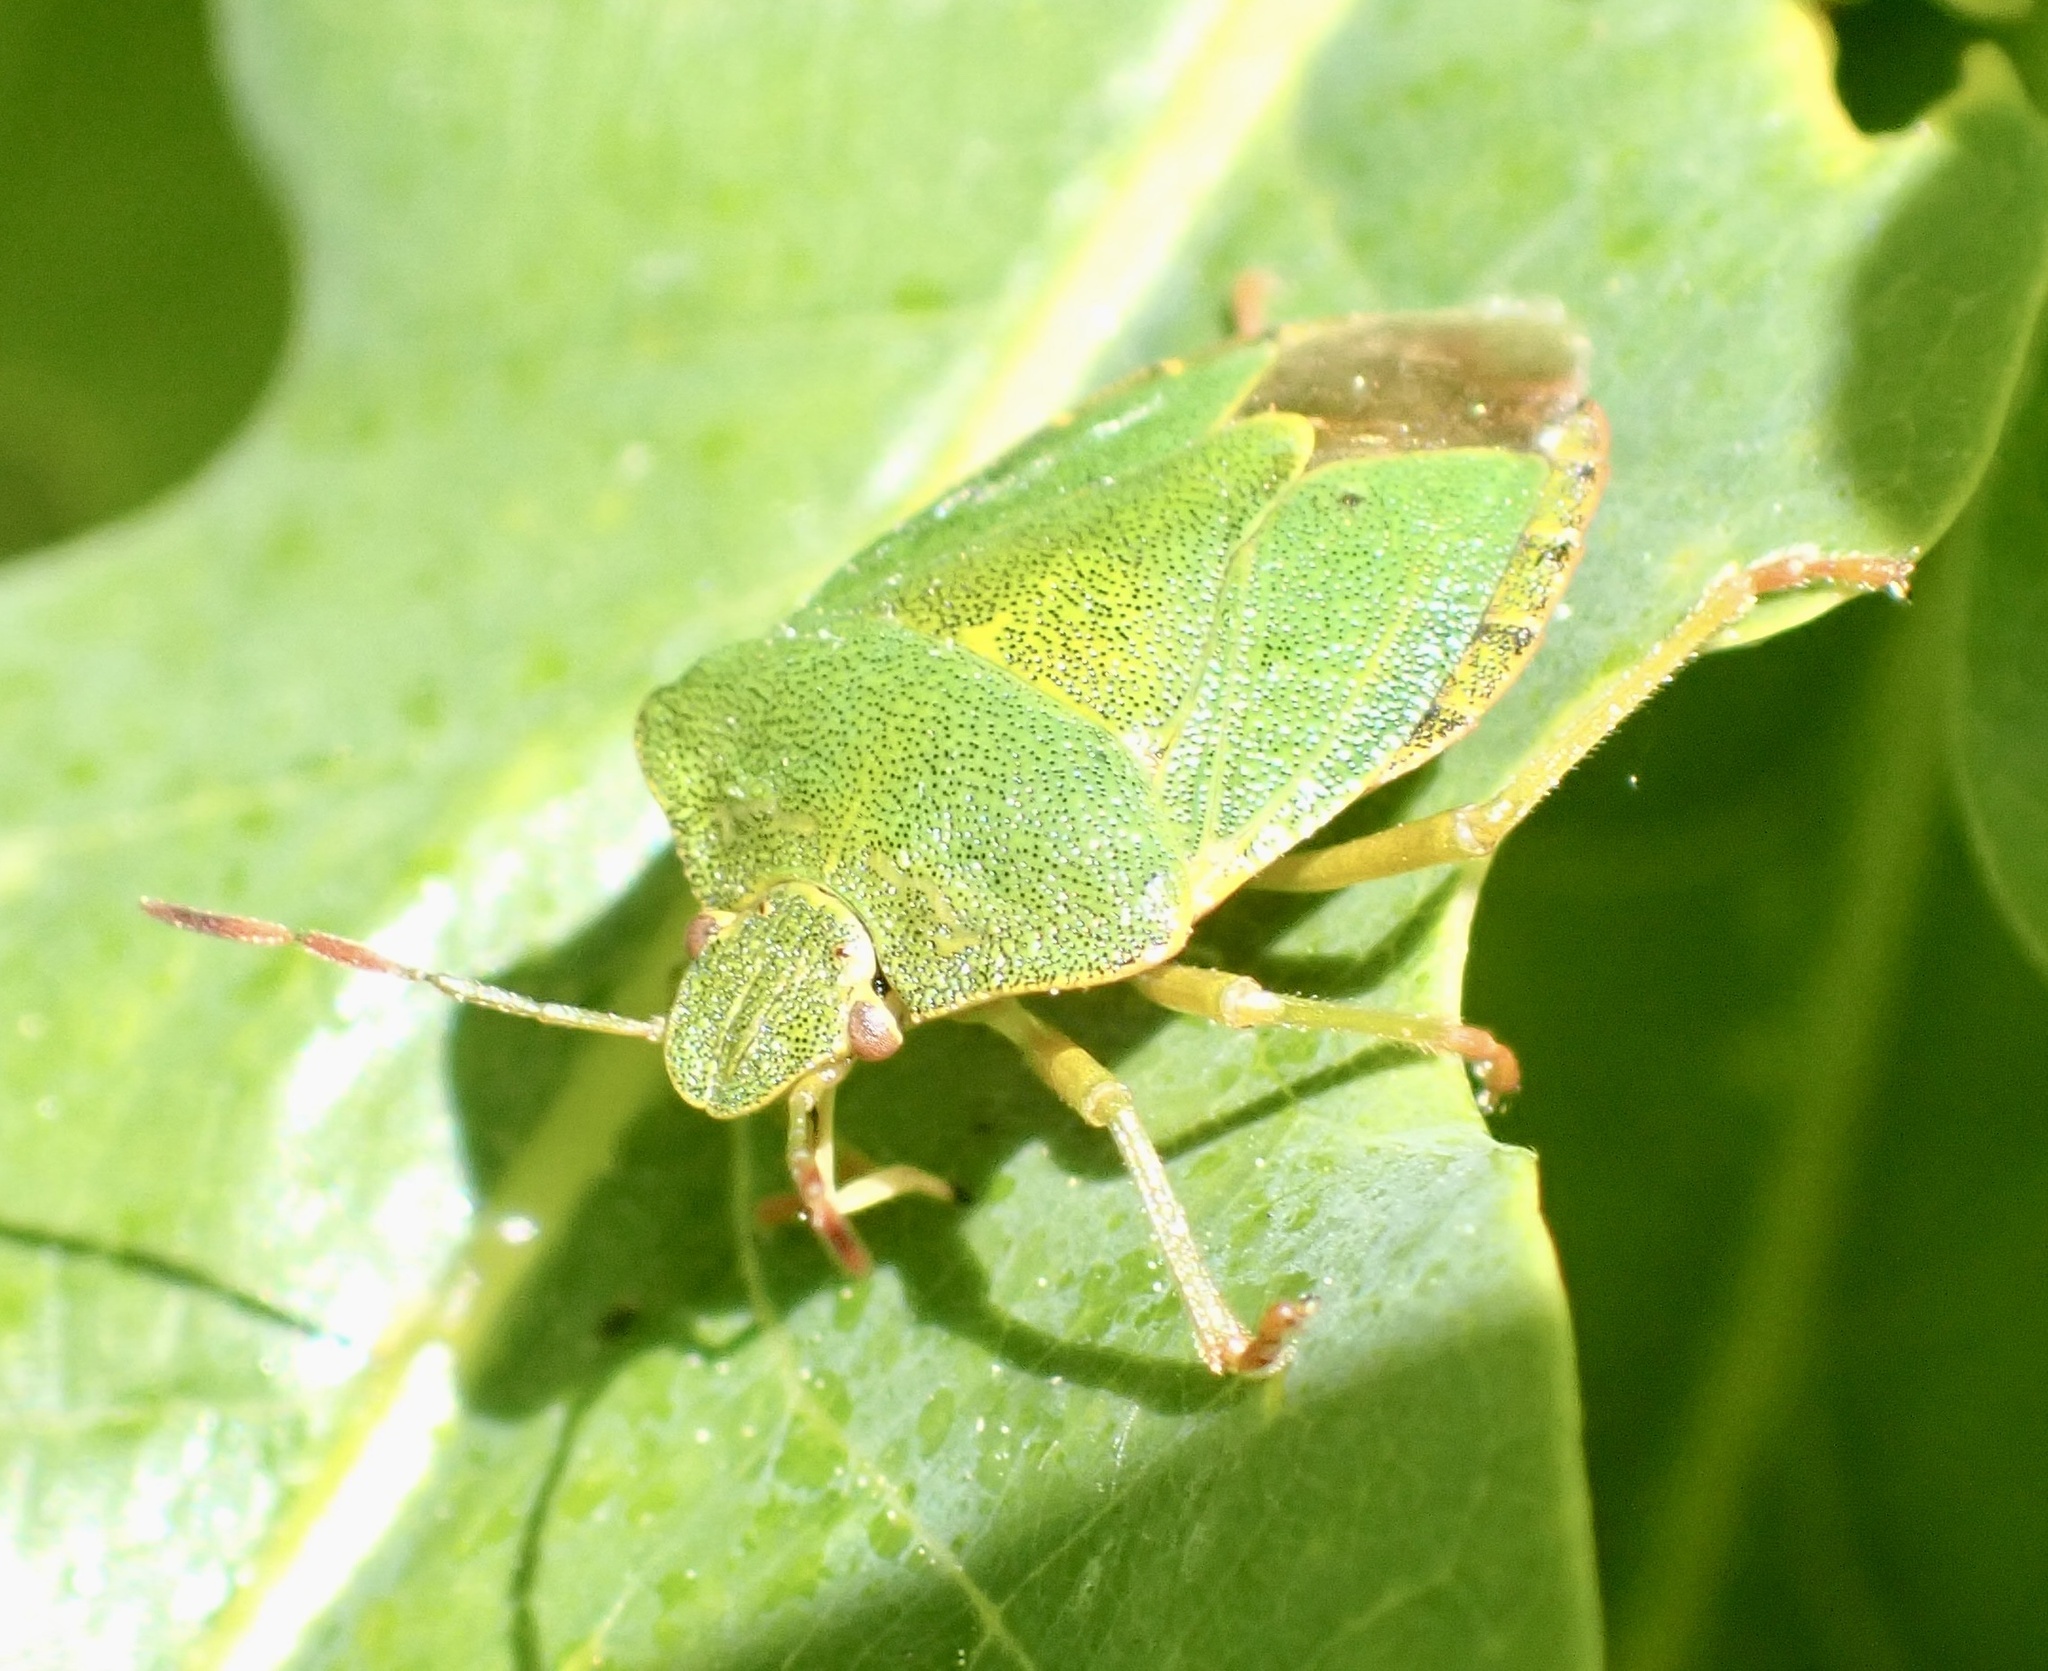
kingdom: Animalia
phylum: Arthropoda
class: Insecta
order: Hemiptera
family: Pentatomidae
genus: Palomena
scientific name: Palomena prasina
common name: Green shieldbug
